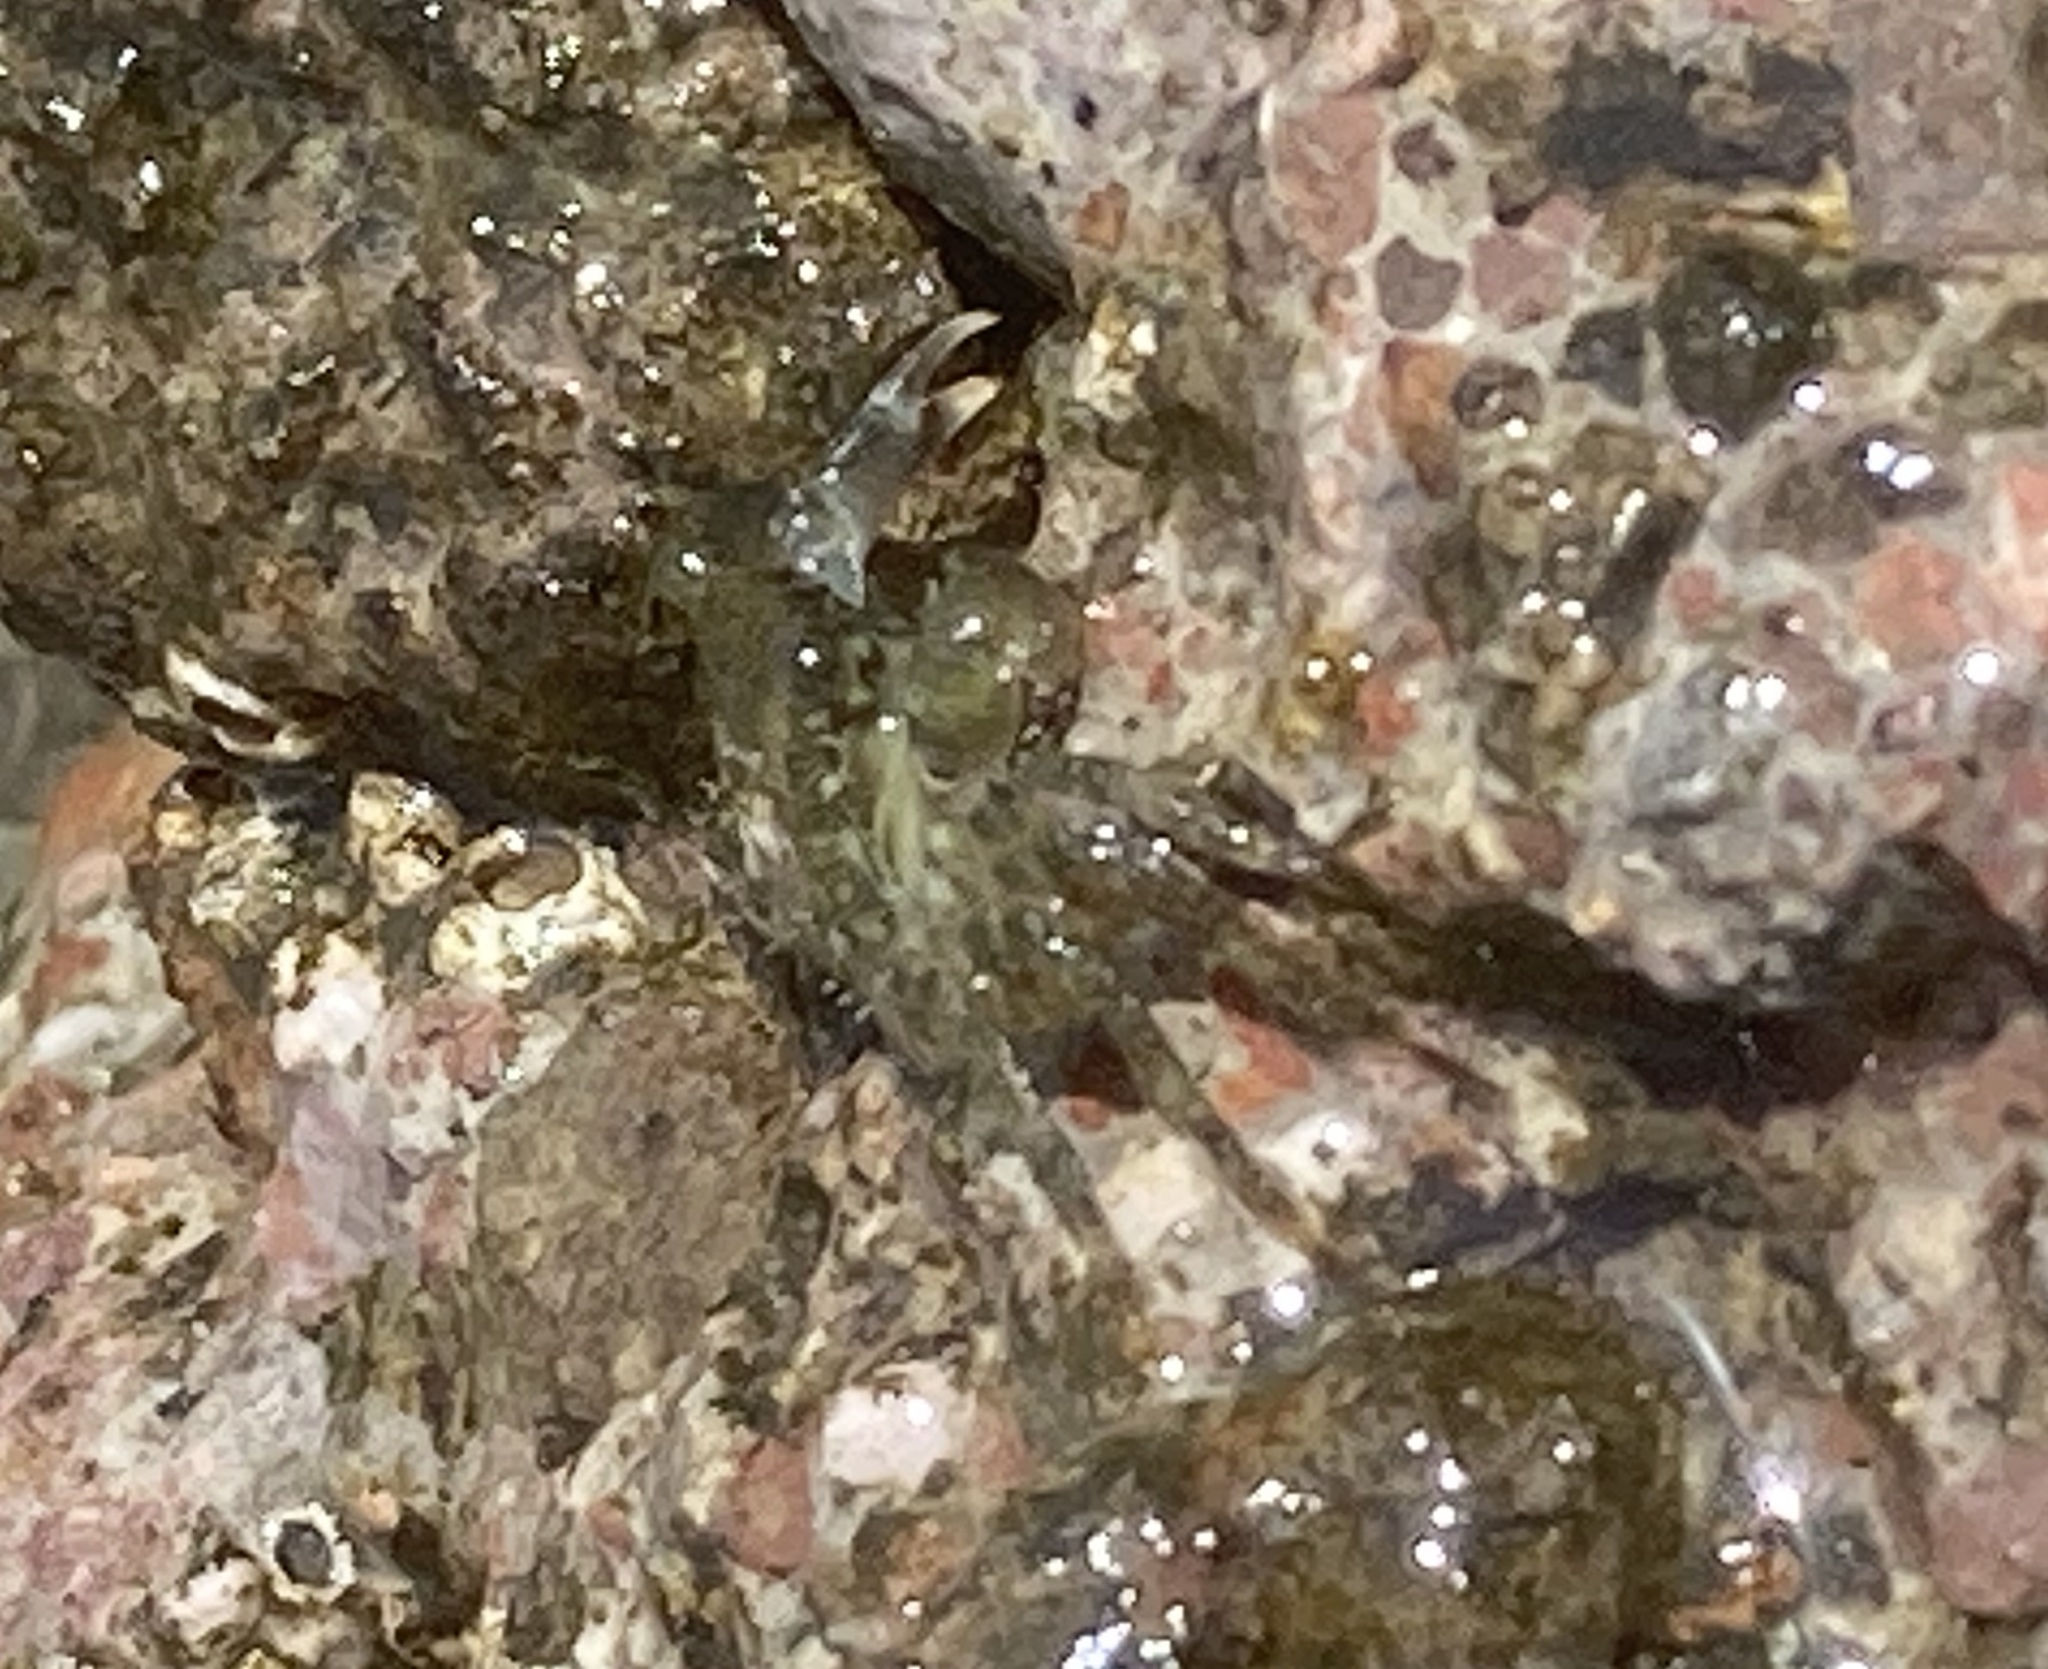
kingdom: Animalia
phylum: Arthropoda
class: Malacostraca
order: Decapoda
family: Grapsidae
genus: Pachygrapsus
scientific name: Pachygrapsus marmoratus
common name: Marbled rock crab
